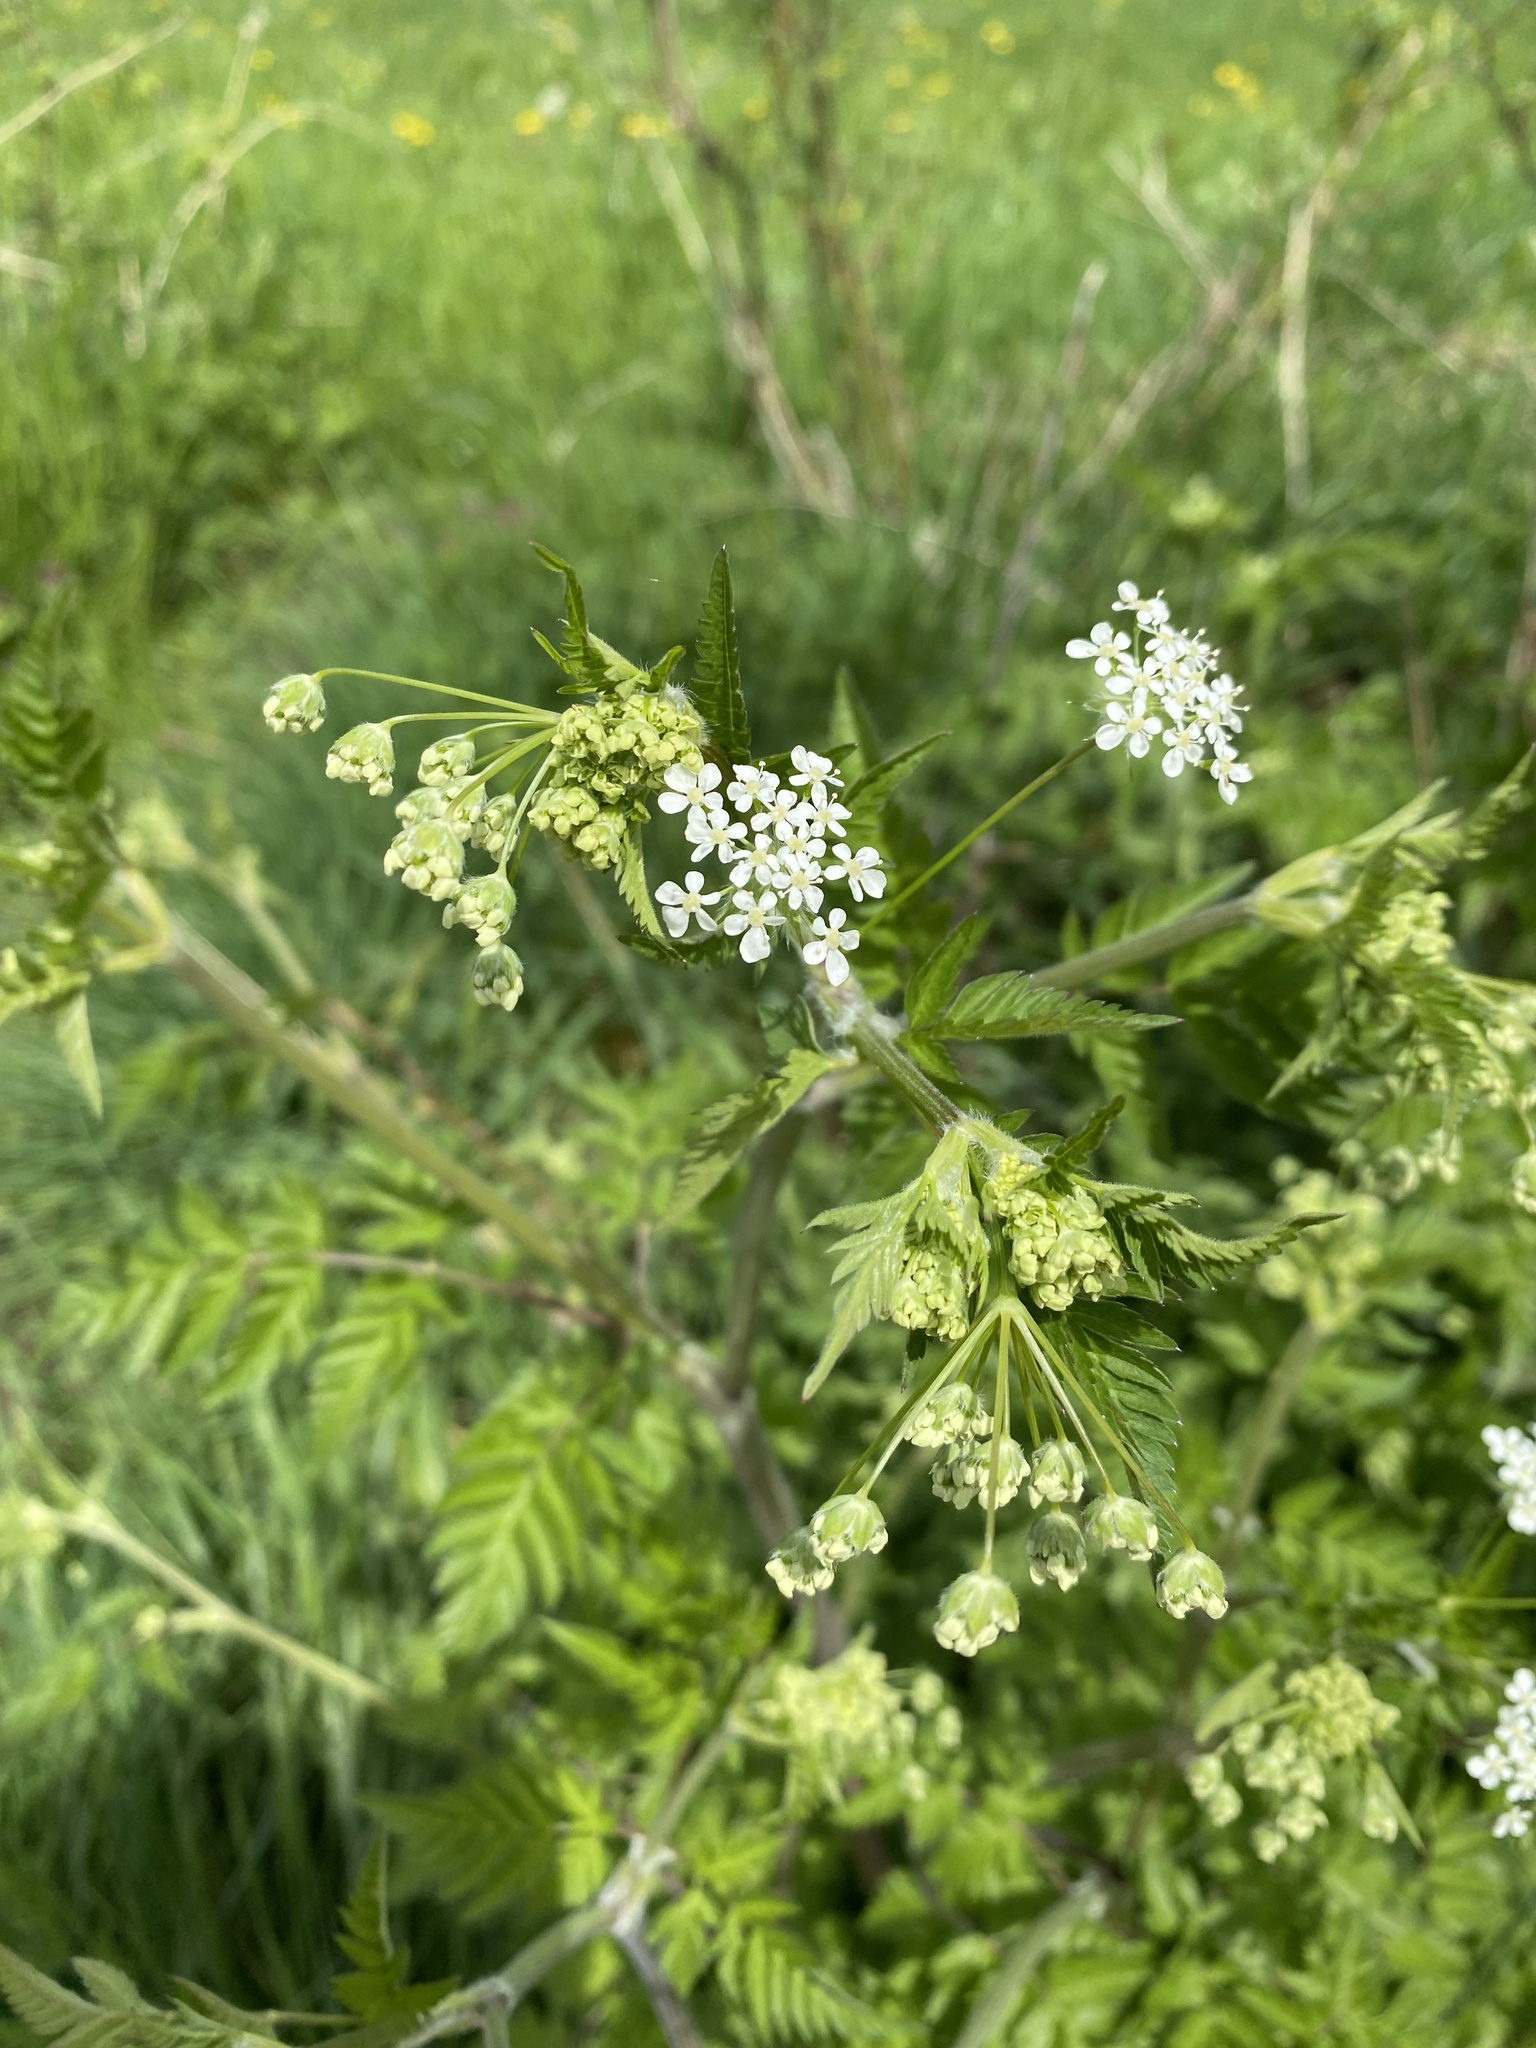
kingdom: Plantae
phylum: Tracheophyta
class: Magnoliopsida
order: Apiales
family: Apiaceae
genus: Anthriscus
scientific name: Anthriscus sylvestris
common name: Cow parsley
